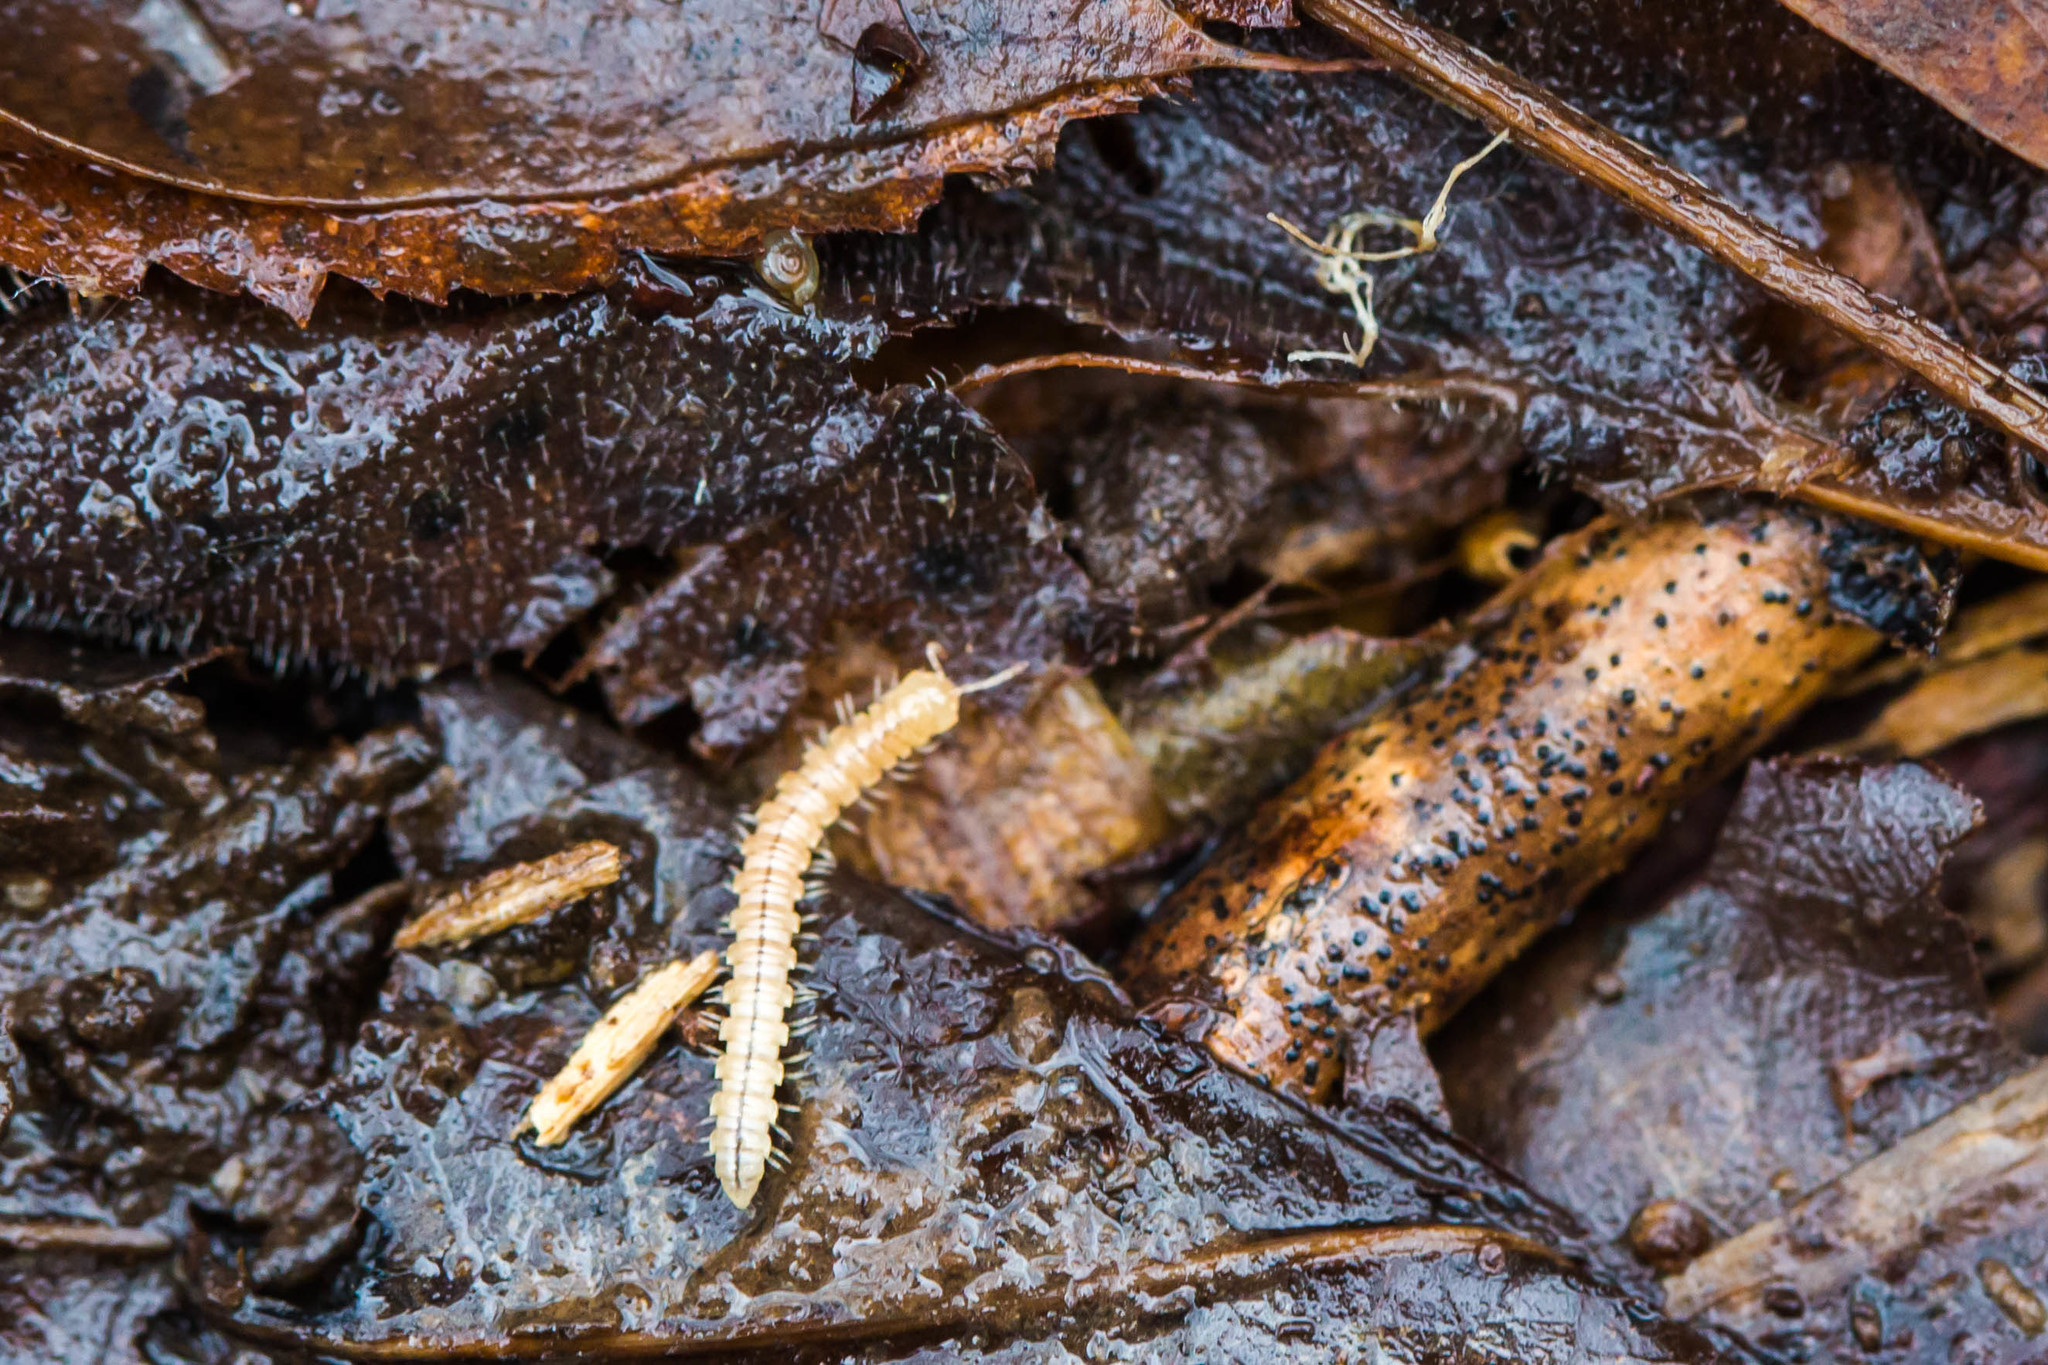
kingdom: Animalia
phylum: Arthropoda
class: Diplopoda
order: Polydesmida
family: Paradoxosomatidae
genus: Oxidus
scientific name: Oxidus gracilis
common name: Greenhouse millipede
